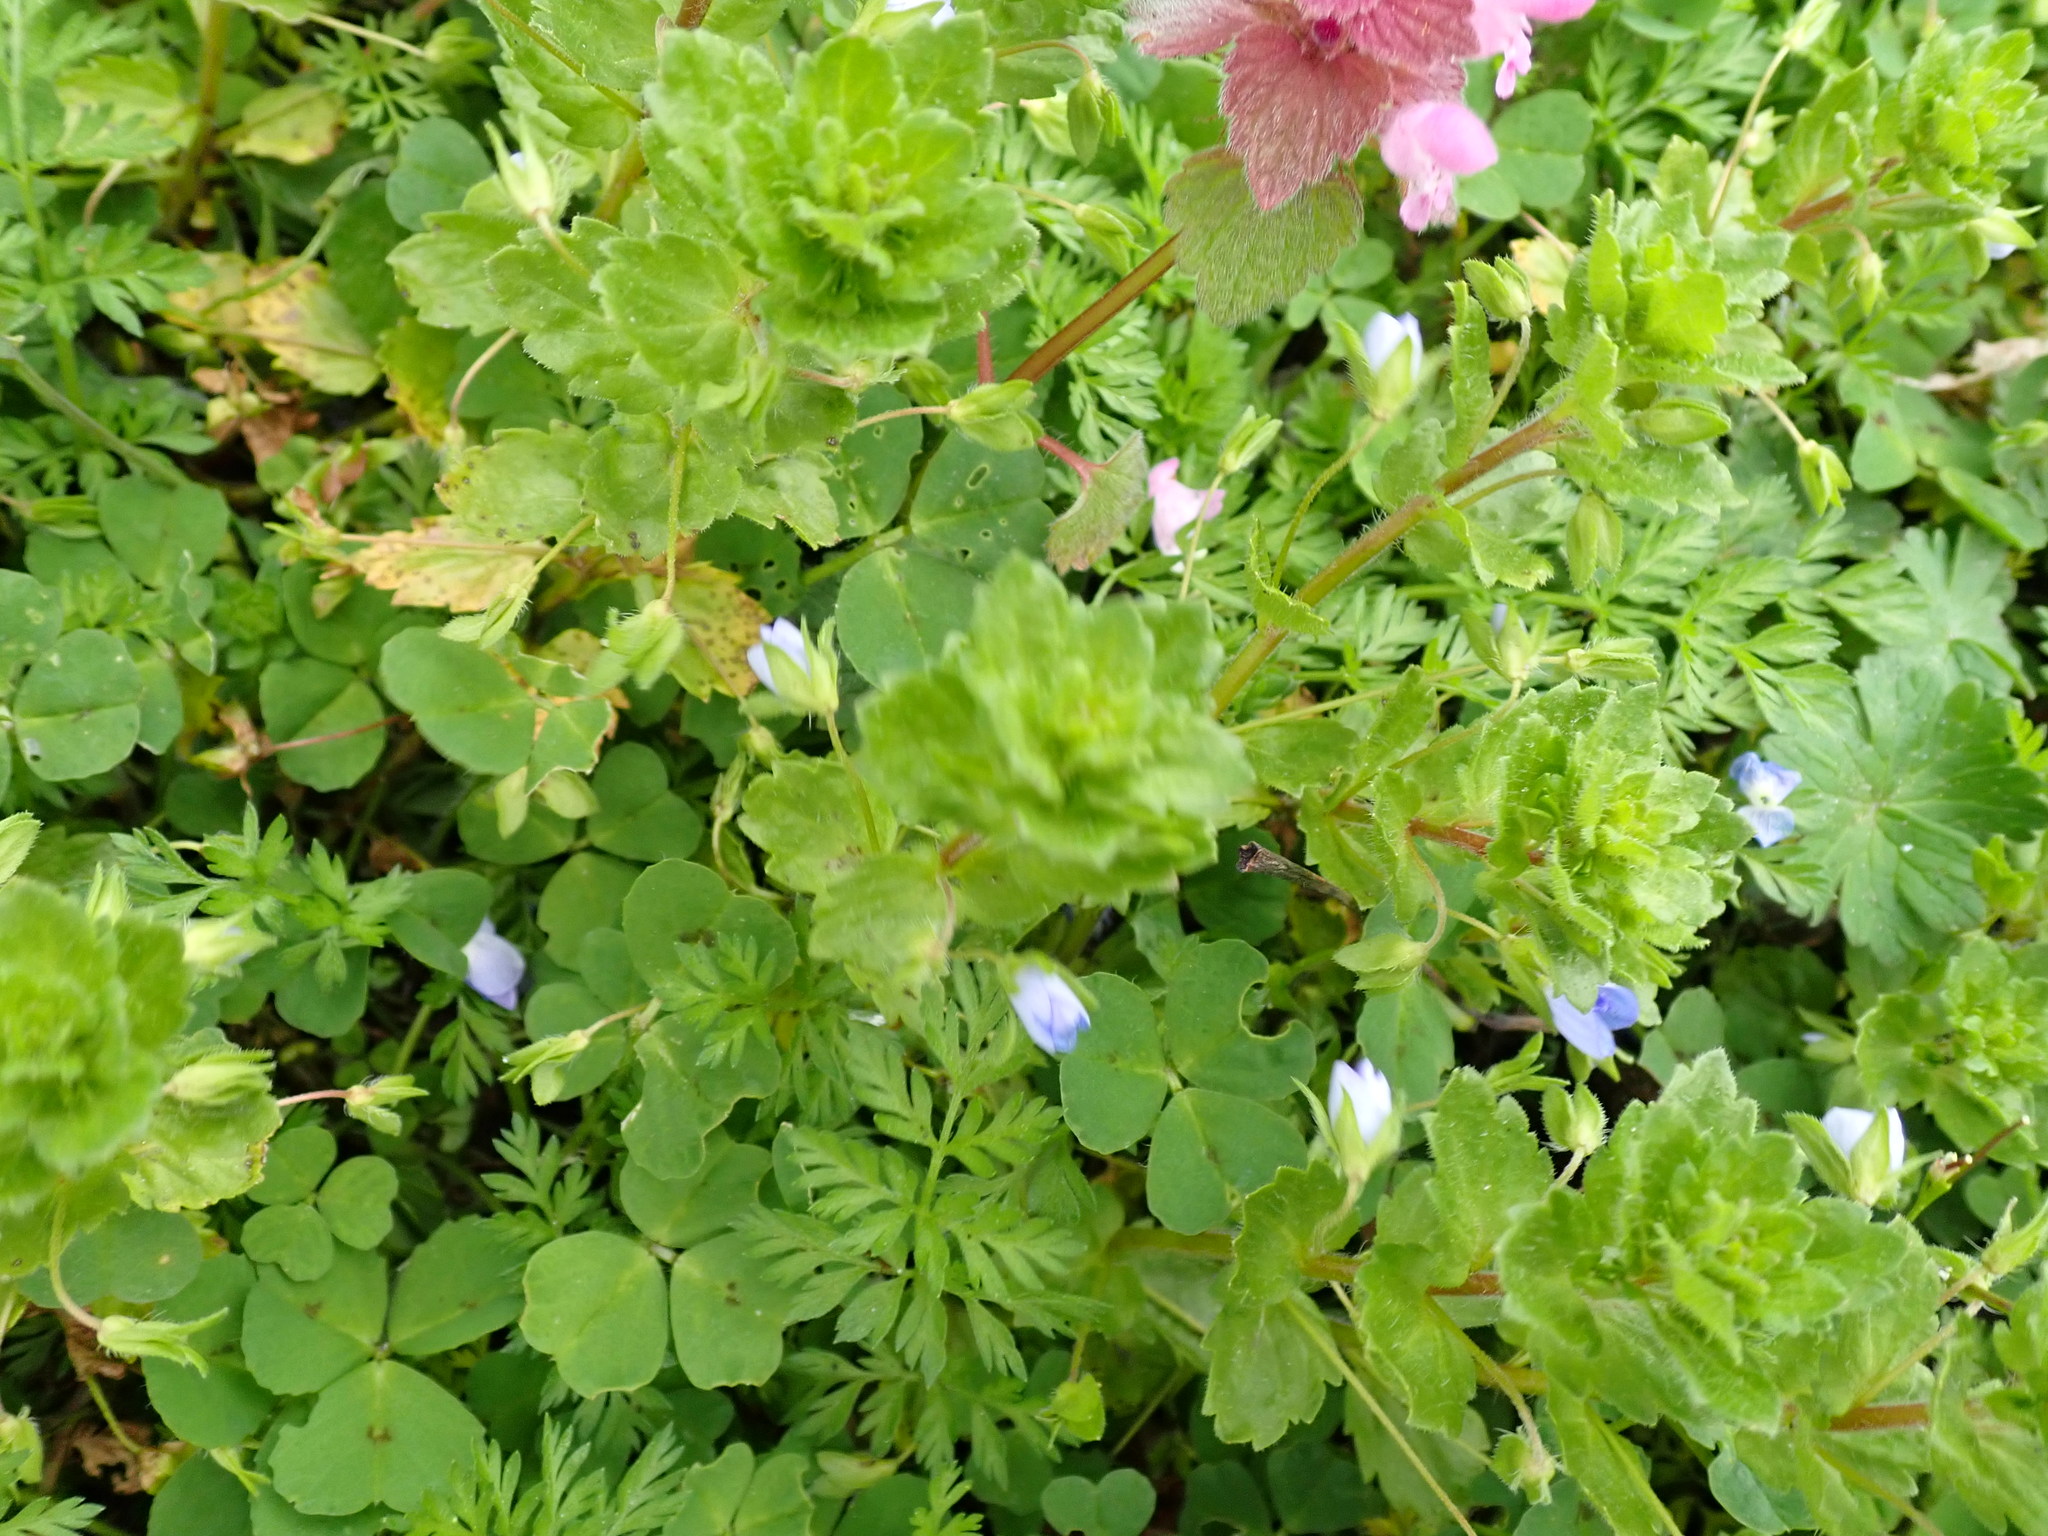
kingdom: Plantae
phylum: Tracheophyta
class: Magnoliopsida
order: Lamiales
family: Plantaginaceae
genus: Veronica
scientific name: Veronica persica
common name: Common field-speedwell
